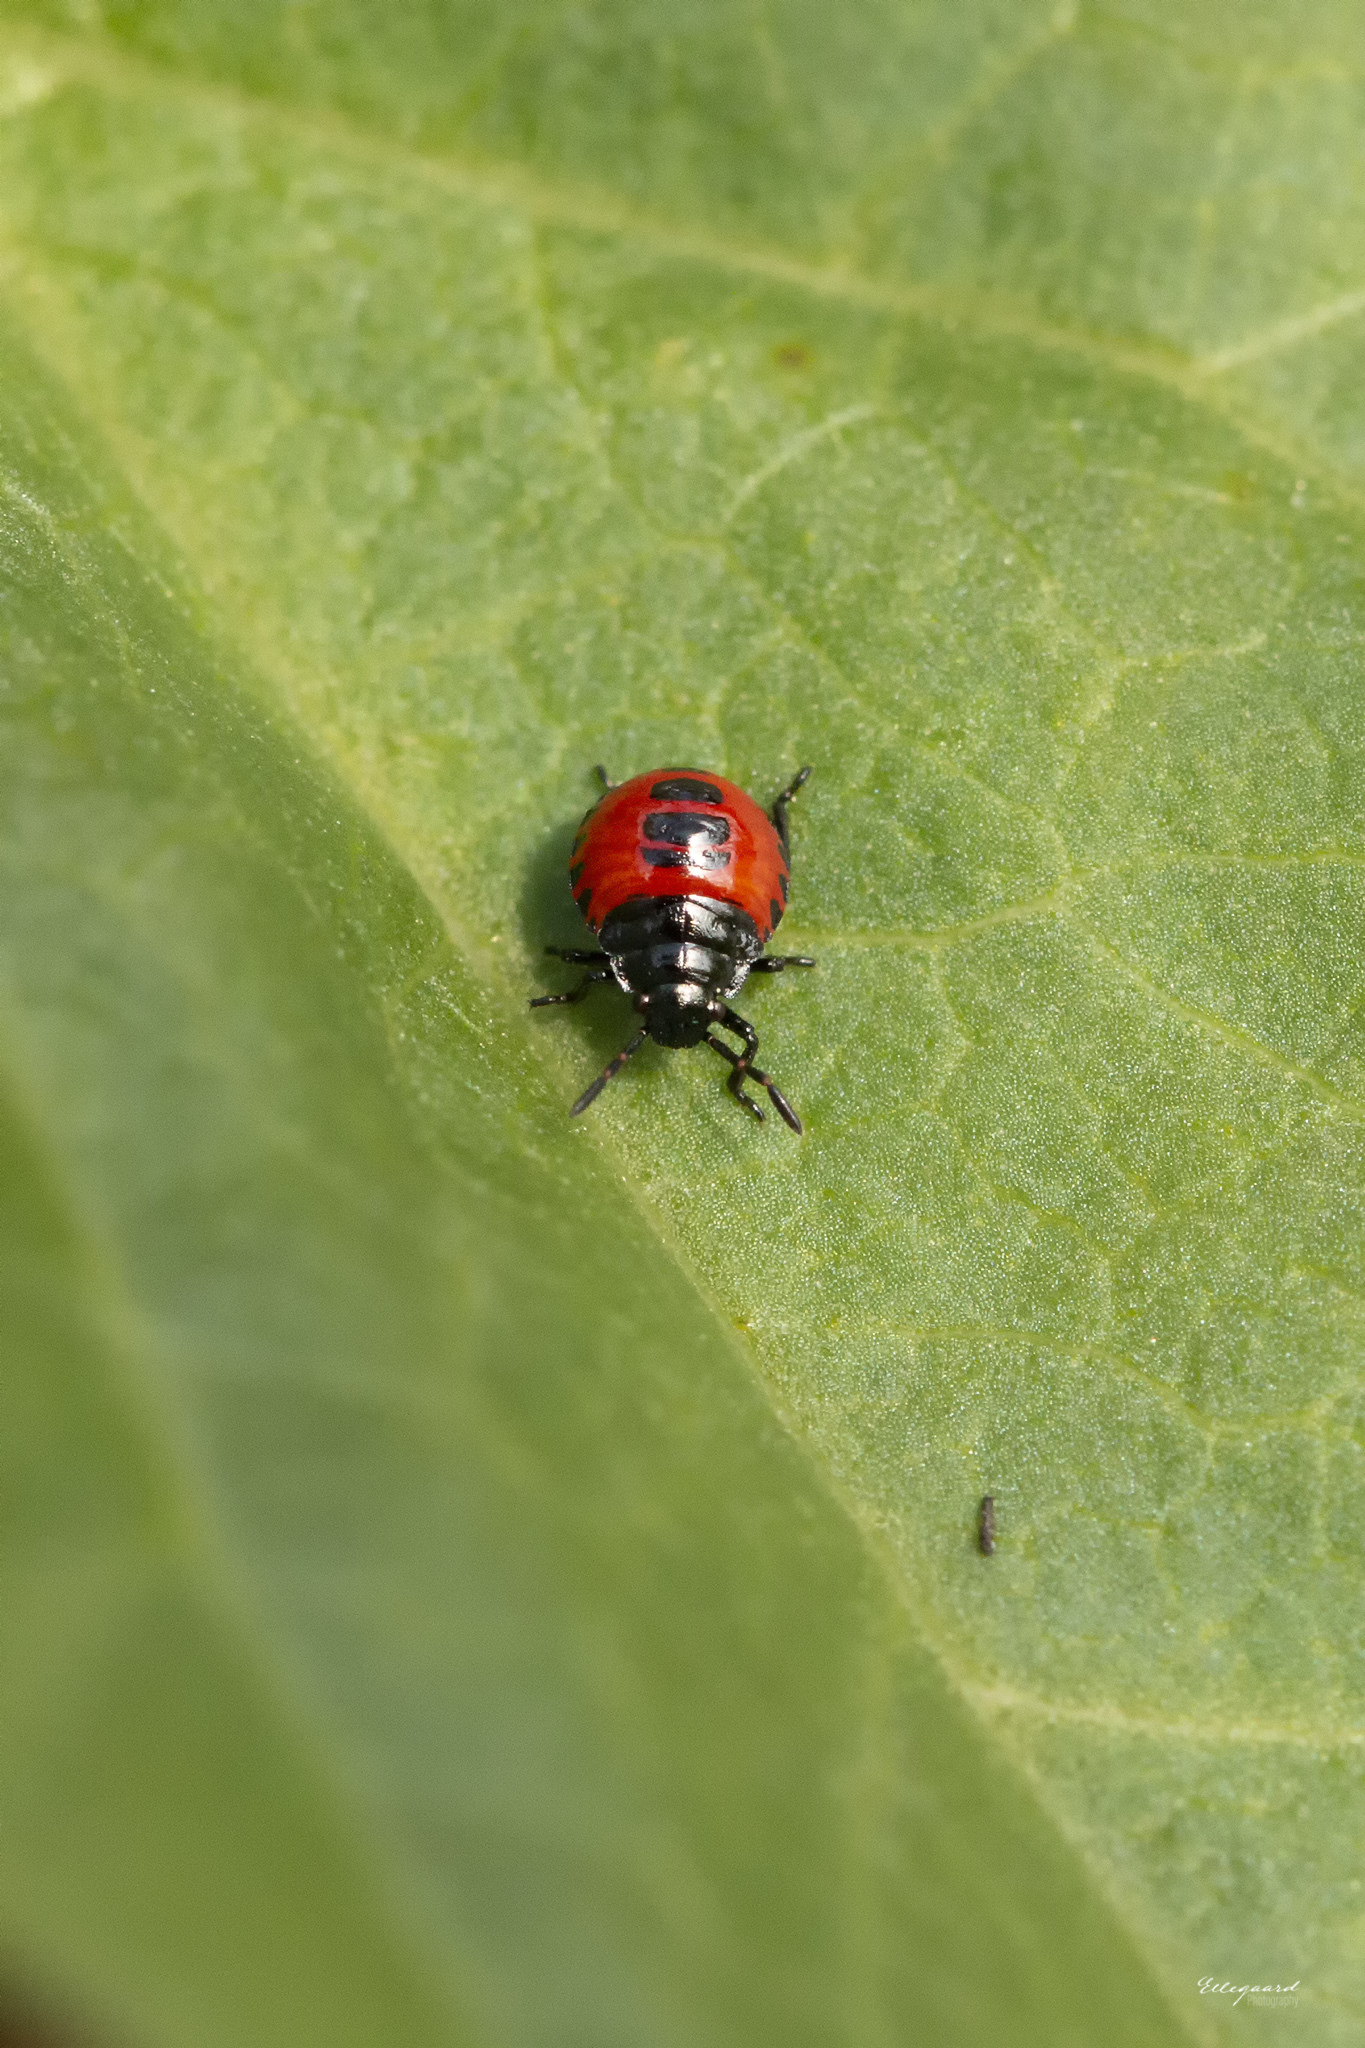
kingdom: Animalia
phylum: Arthropoda
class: Insecta
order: Hemiptera
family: Pentatomidae
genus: Zicrona
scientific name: Zicrona caerulea
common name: Blue shieldbug
